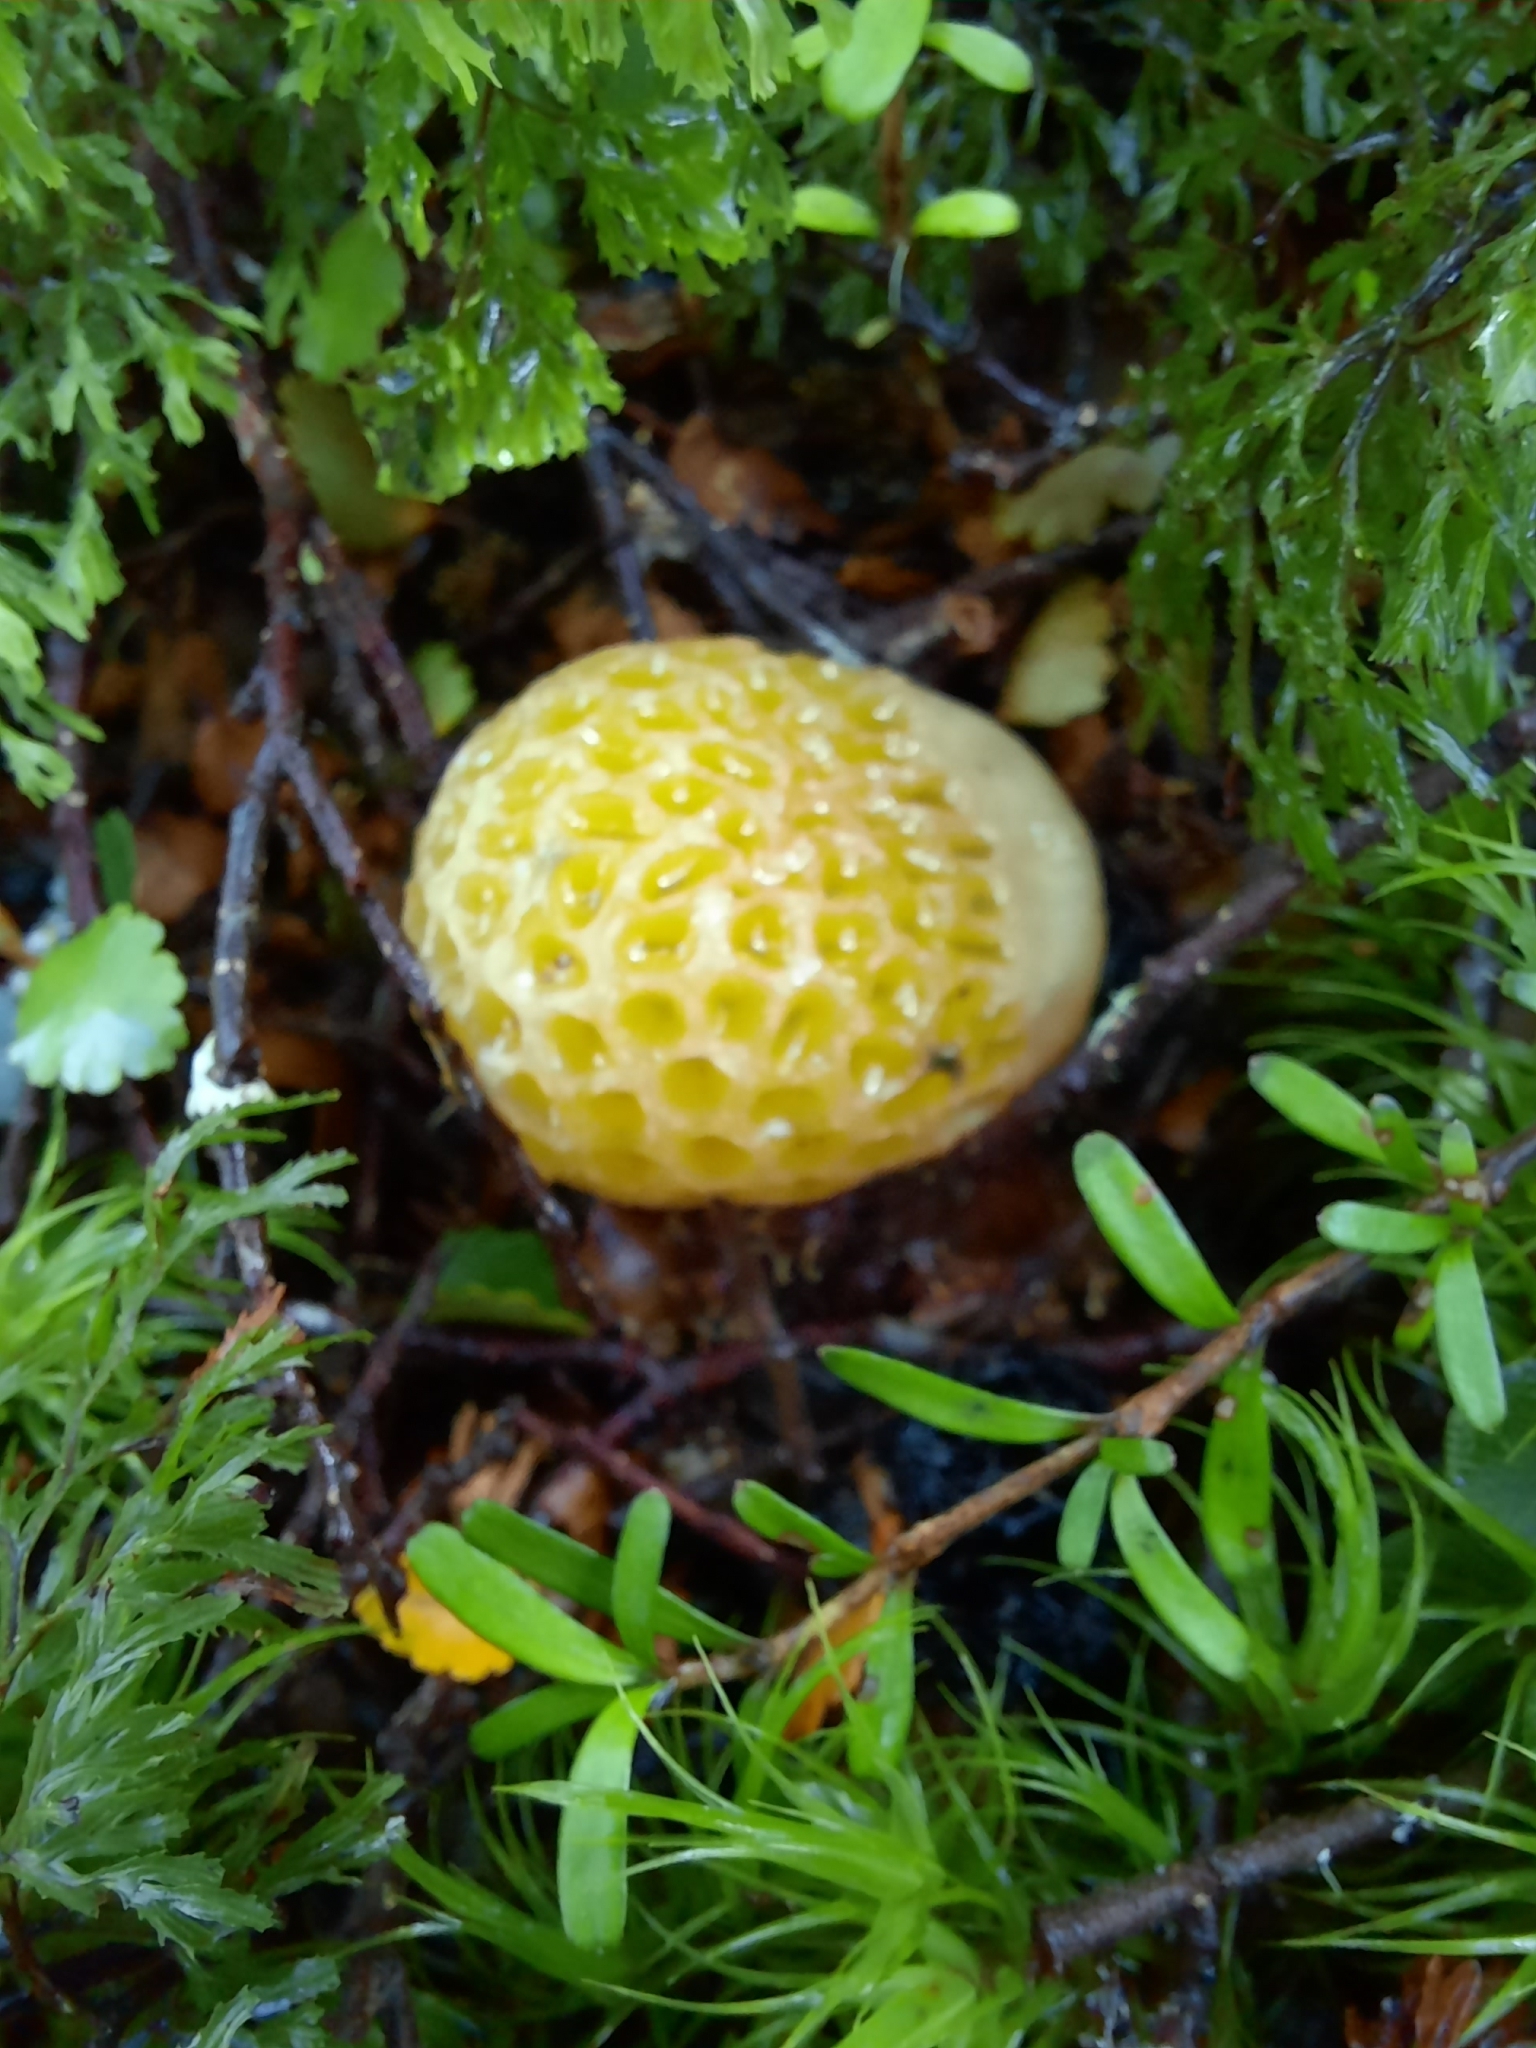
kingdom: Fungi
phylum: Ascomycota
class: Leotiomycetes
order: Cyttariales
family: Cyttariaceae
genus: Cyttaria
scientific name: Cyttaria gunnii
